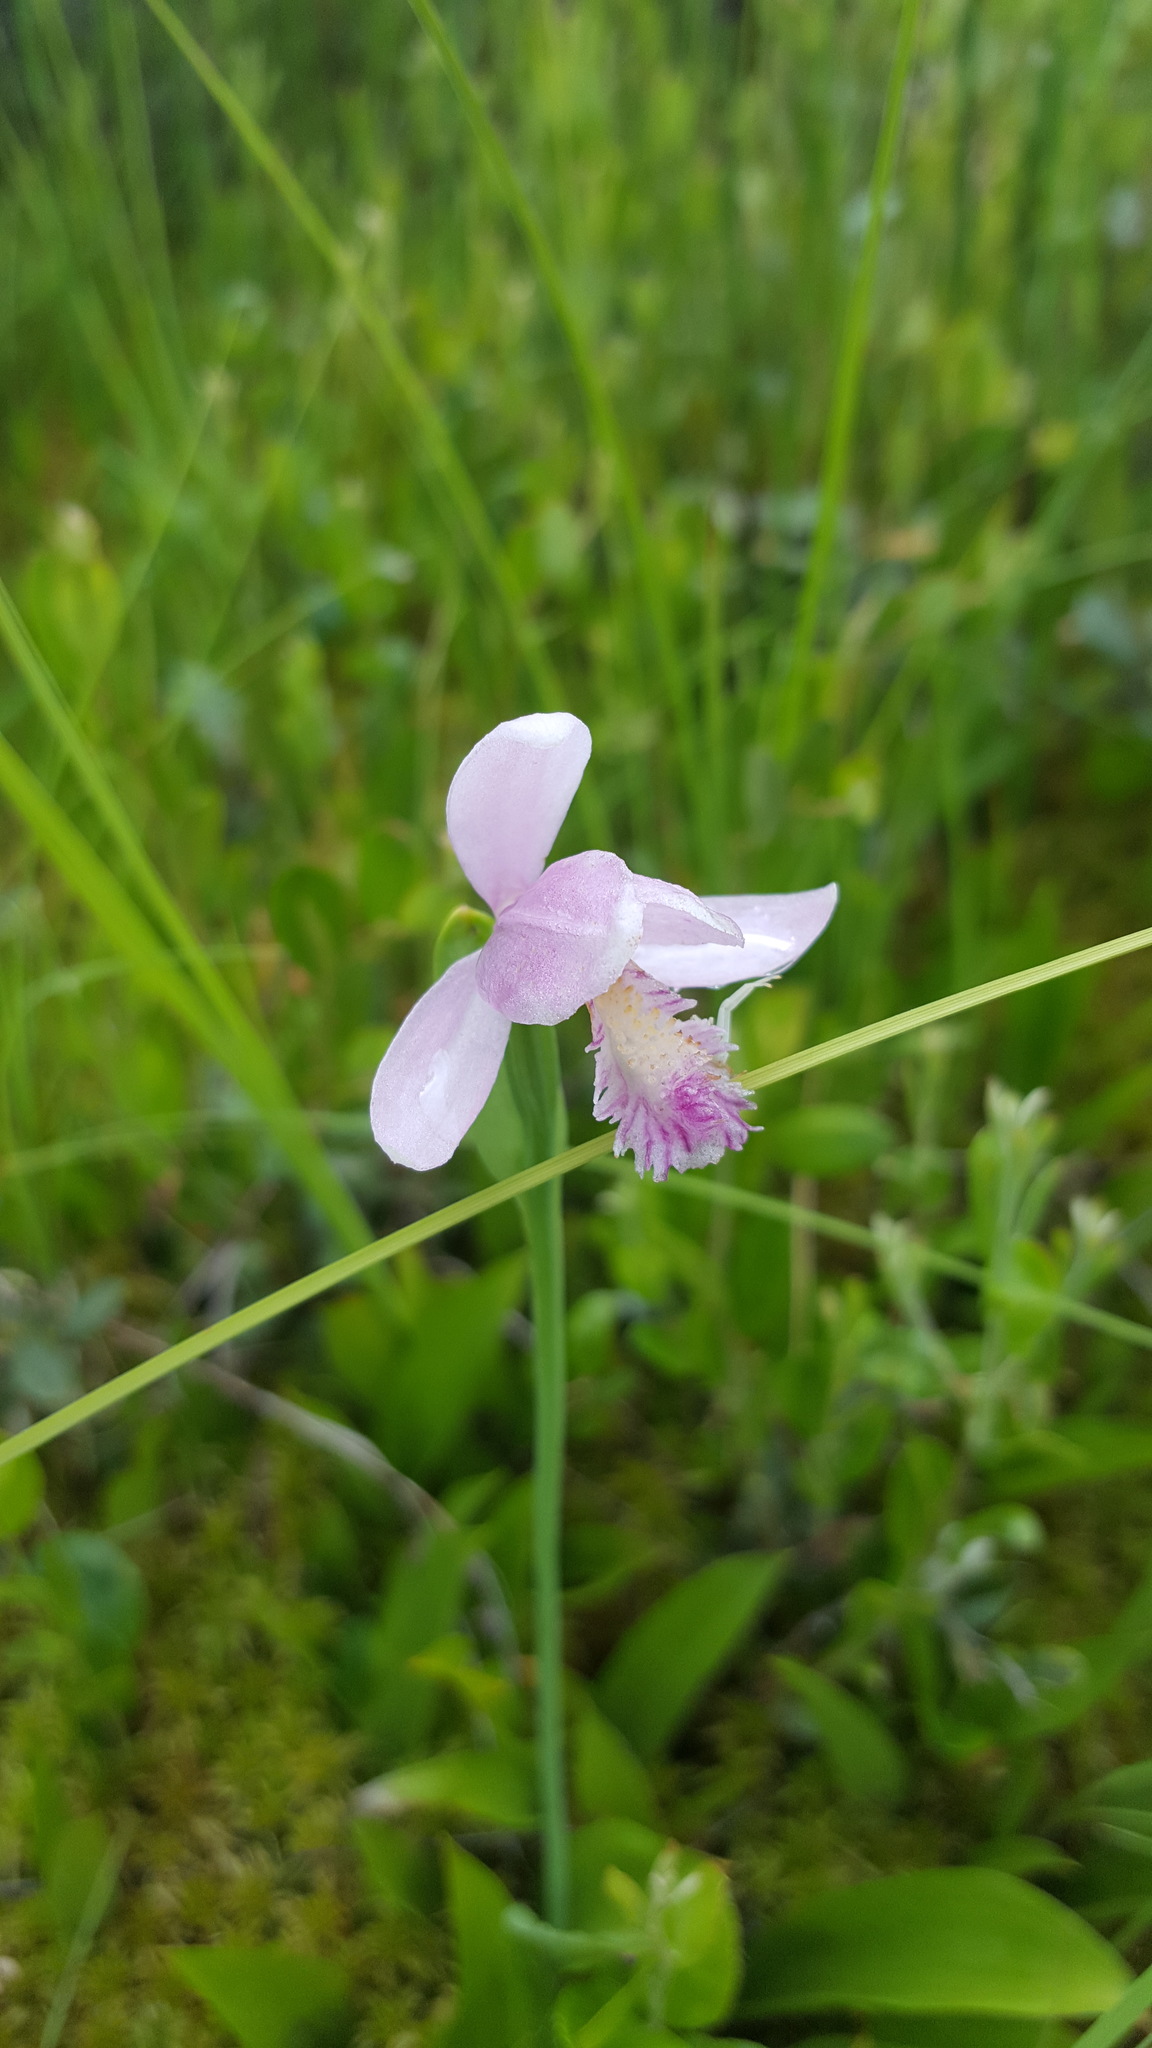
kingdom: Plantae
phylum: Tracheophyta
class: Liliopsida
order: Asparagales
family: Orchidaceae
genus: Pogonia
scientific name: Pogonia ophioglossoides
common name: Rose pogonia
